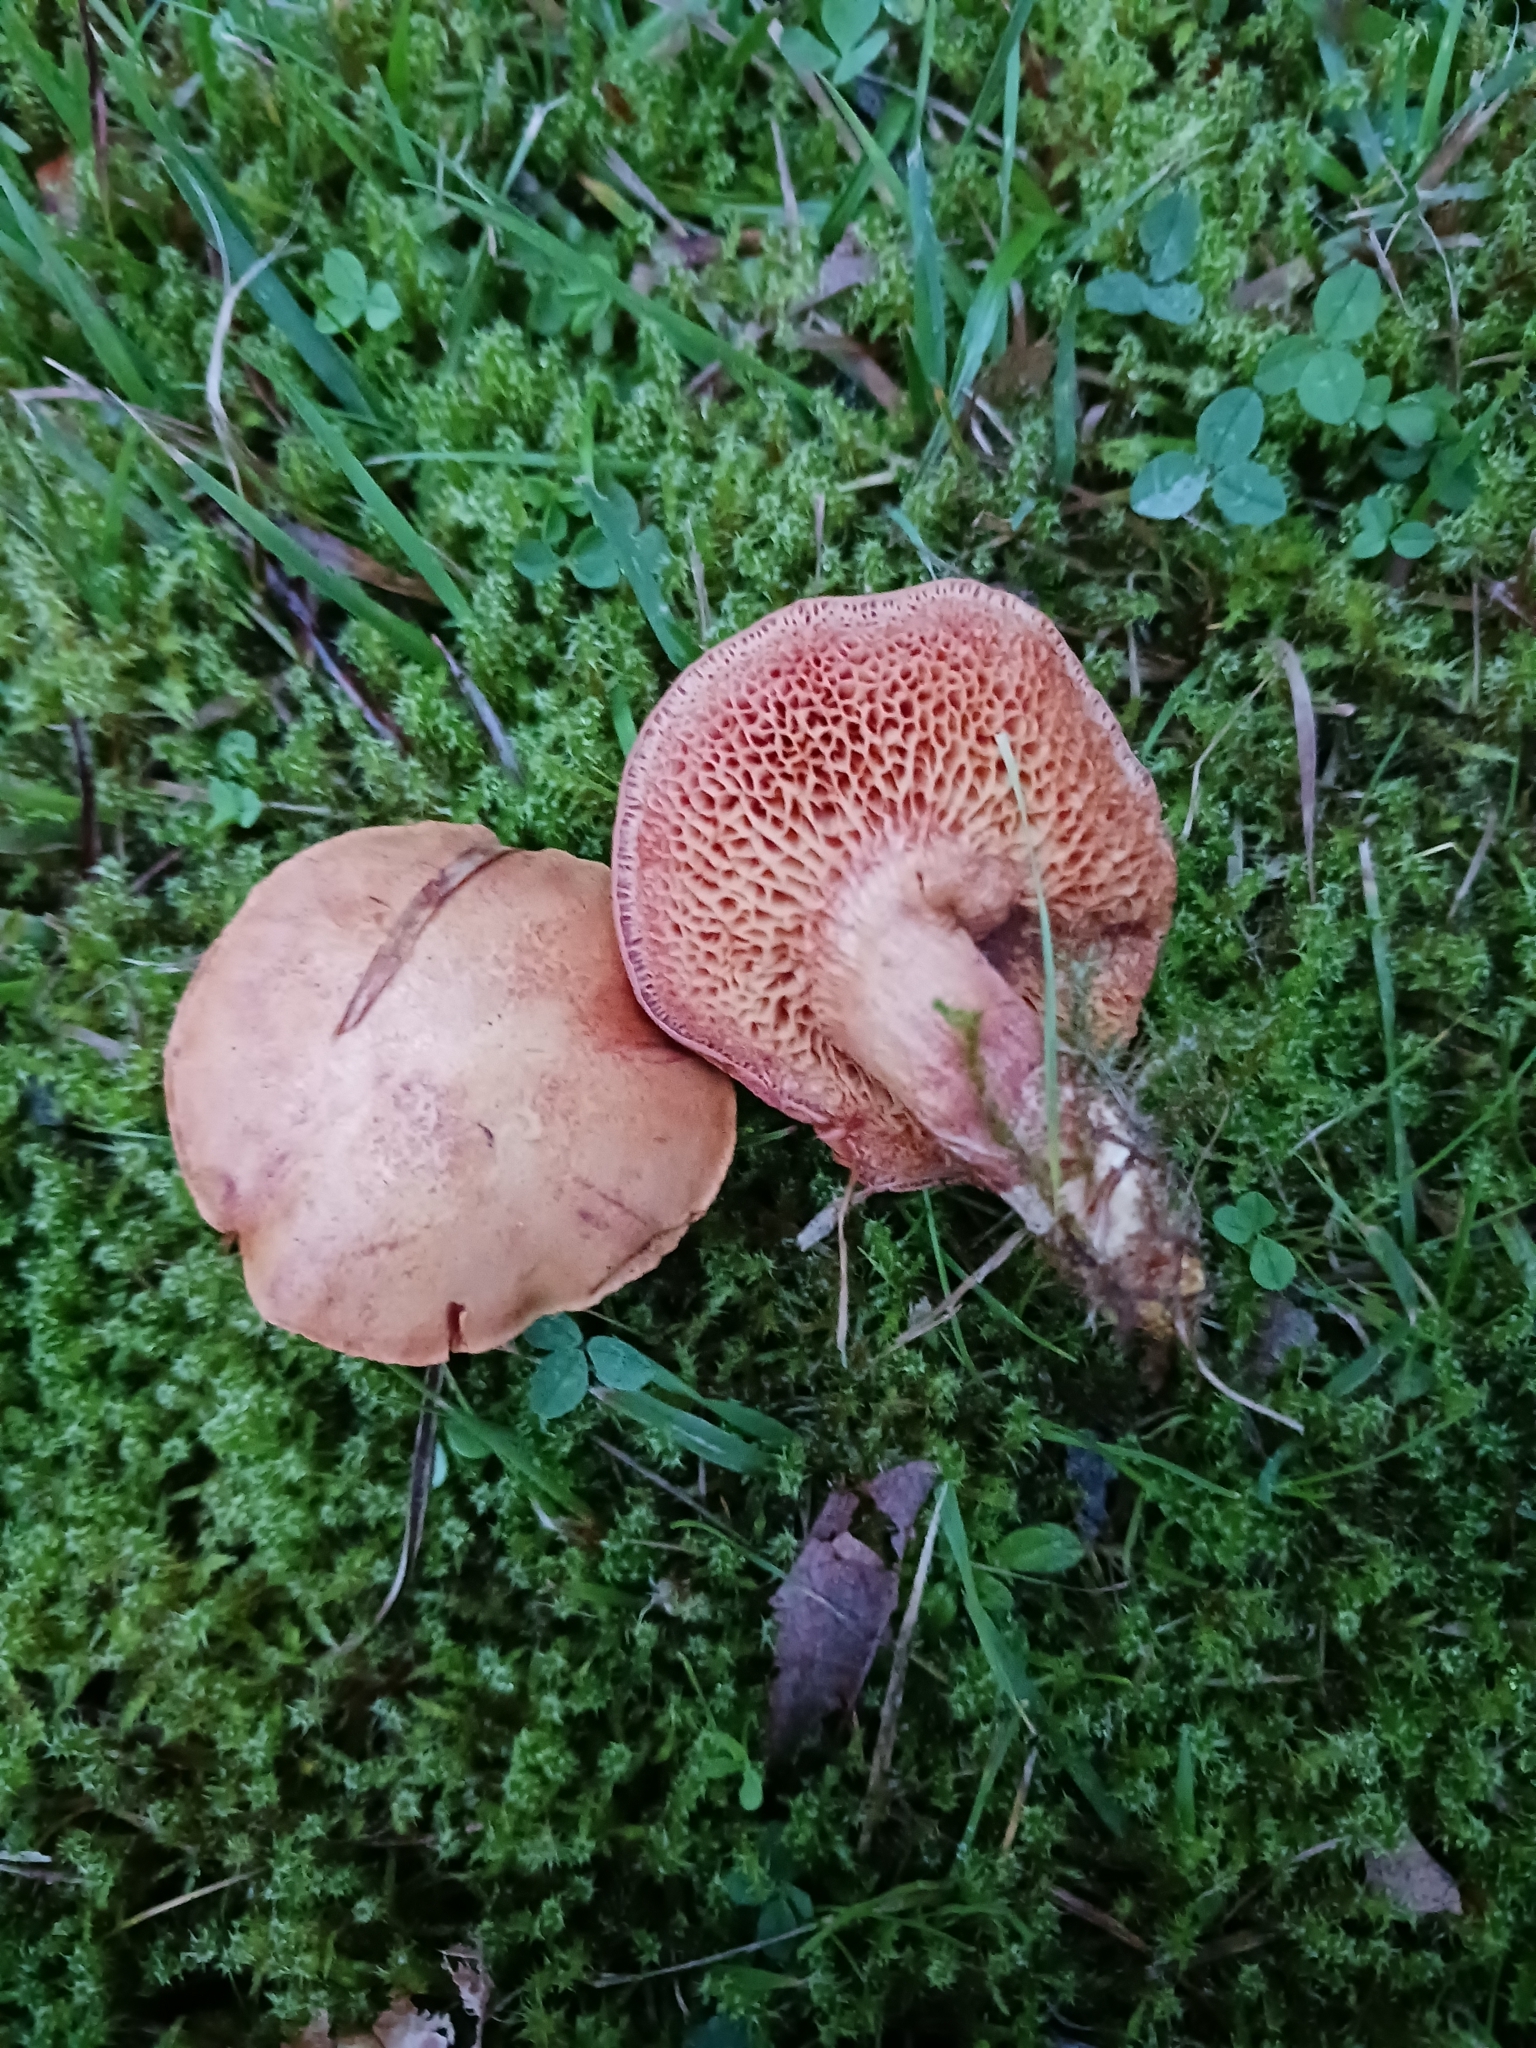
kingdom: Fungi
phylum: Basidiomycota
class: Agaricomycetes
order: Boletales
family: Boletaceae
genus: Chalciporus
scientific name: Chalciporus piperatus
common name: Peppery bolete
